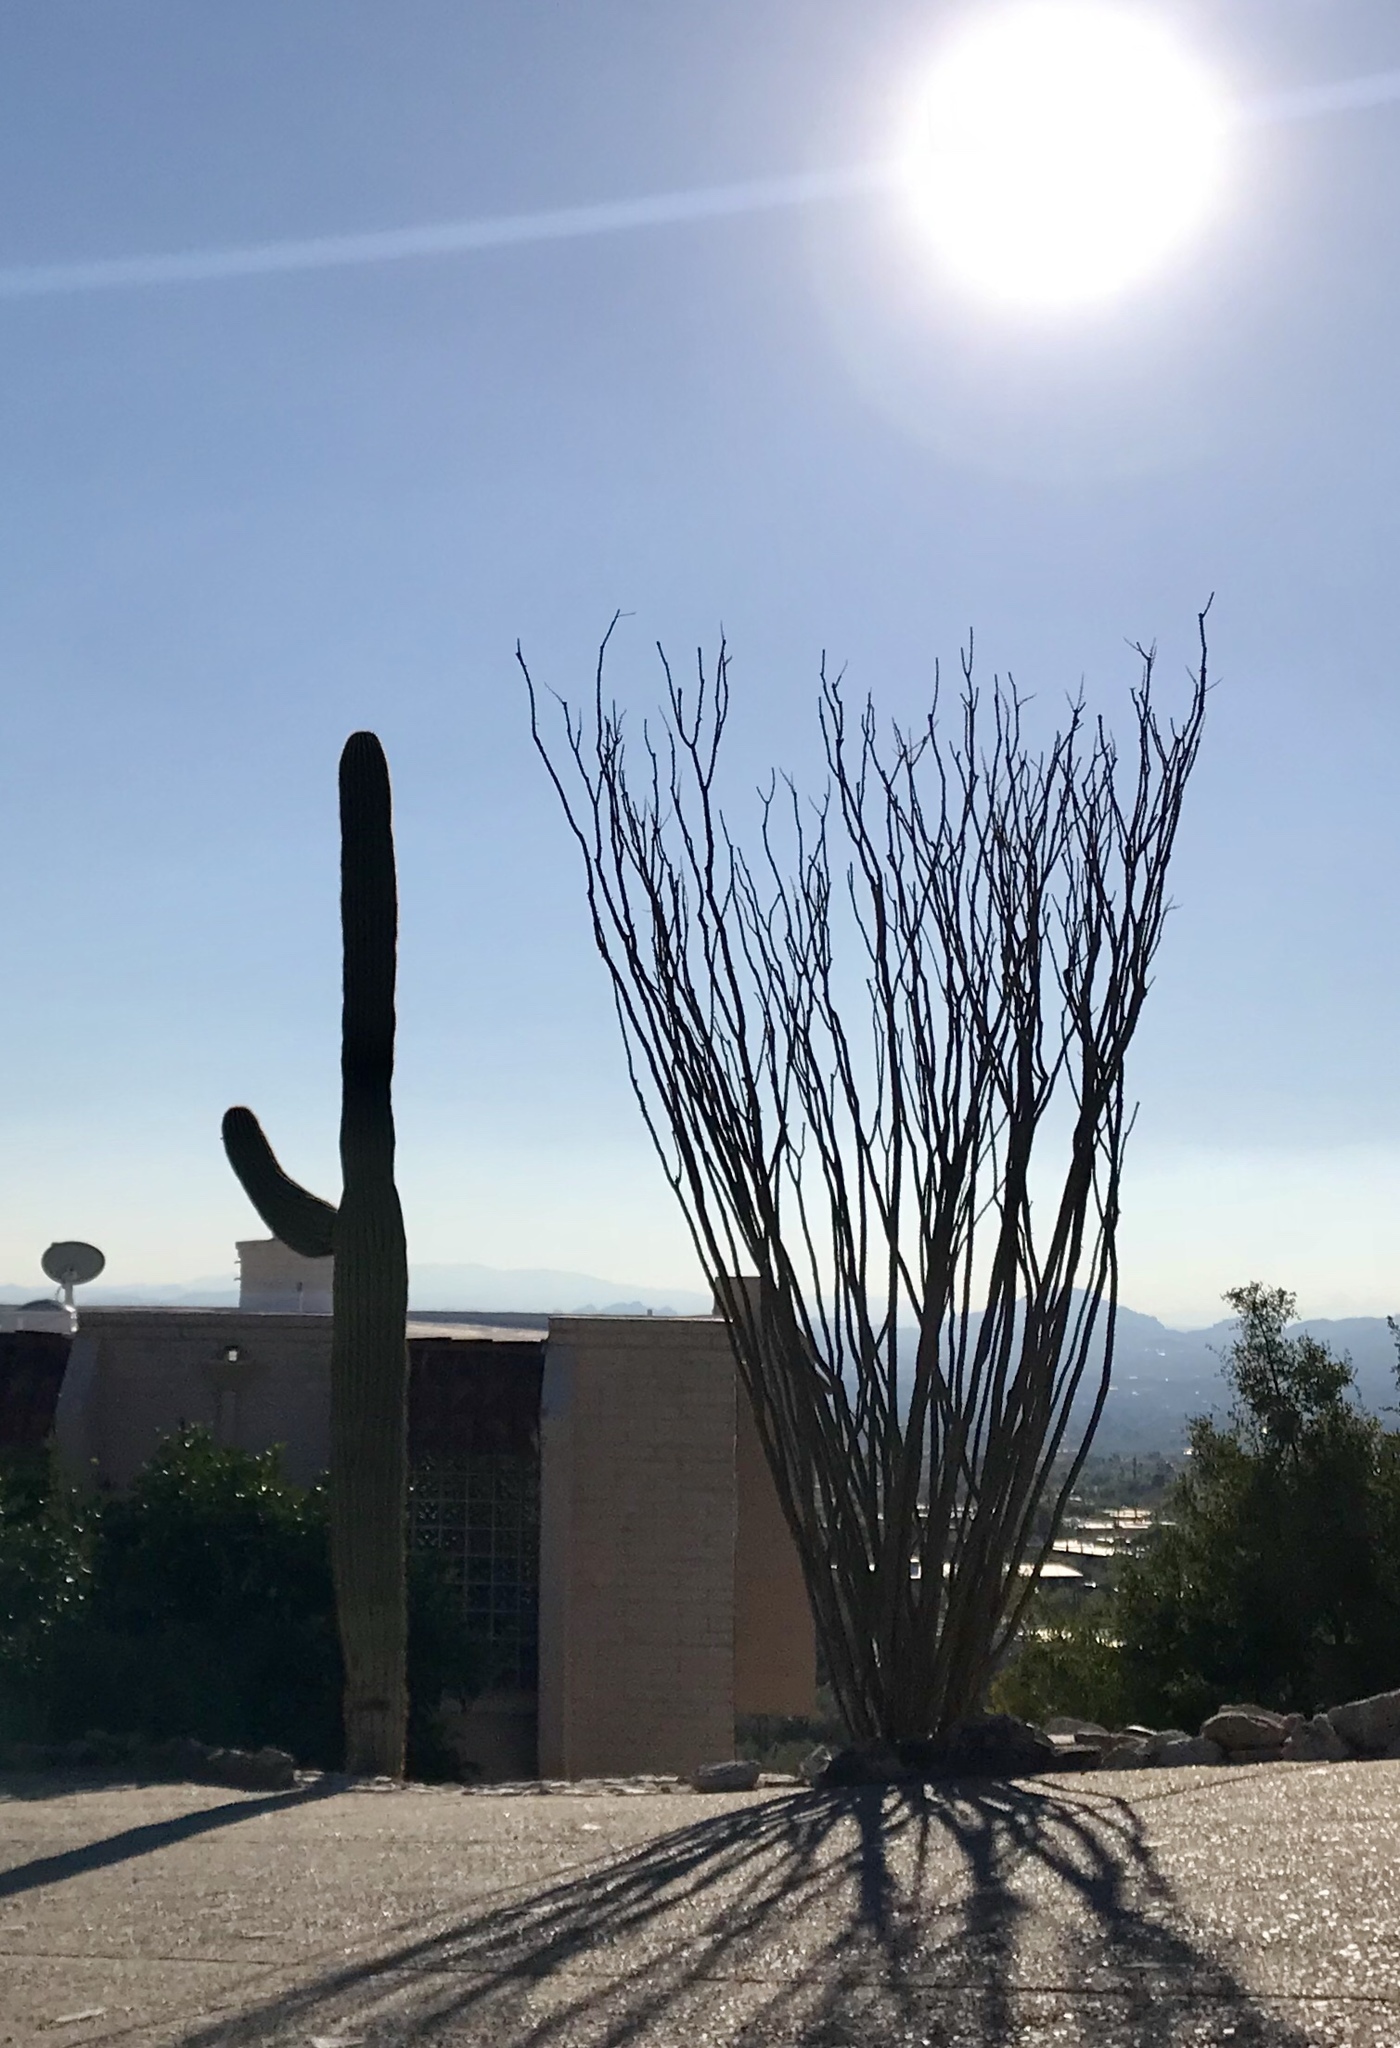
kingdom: Plantae
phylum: Tracheophyta
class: Magnoliopsida
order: Caryophyllales
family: Cactaceae
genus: Carnegiea
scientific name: Carnegiea gigantea
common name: Saguaro
